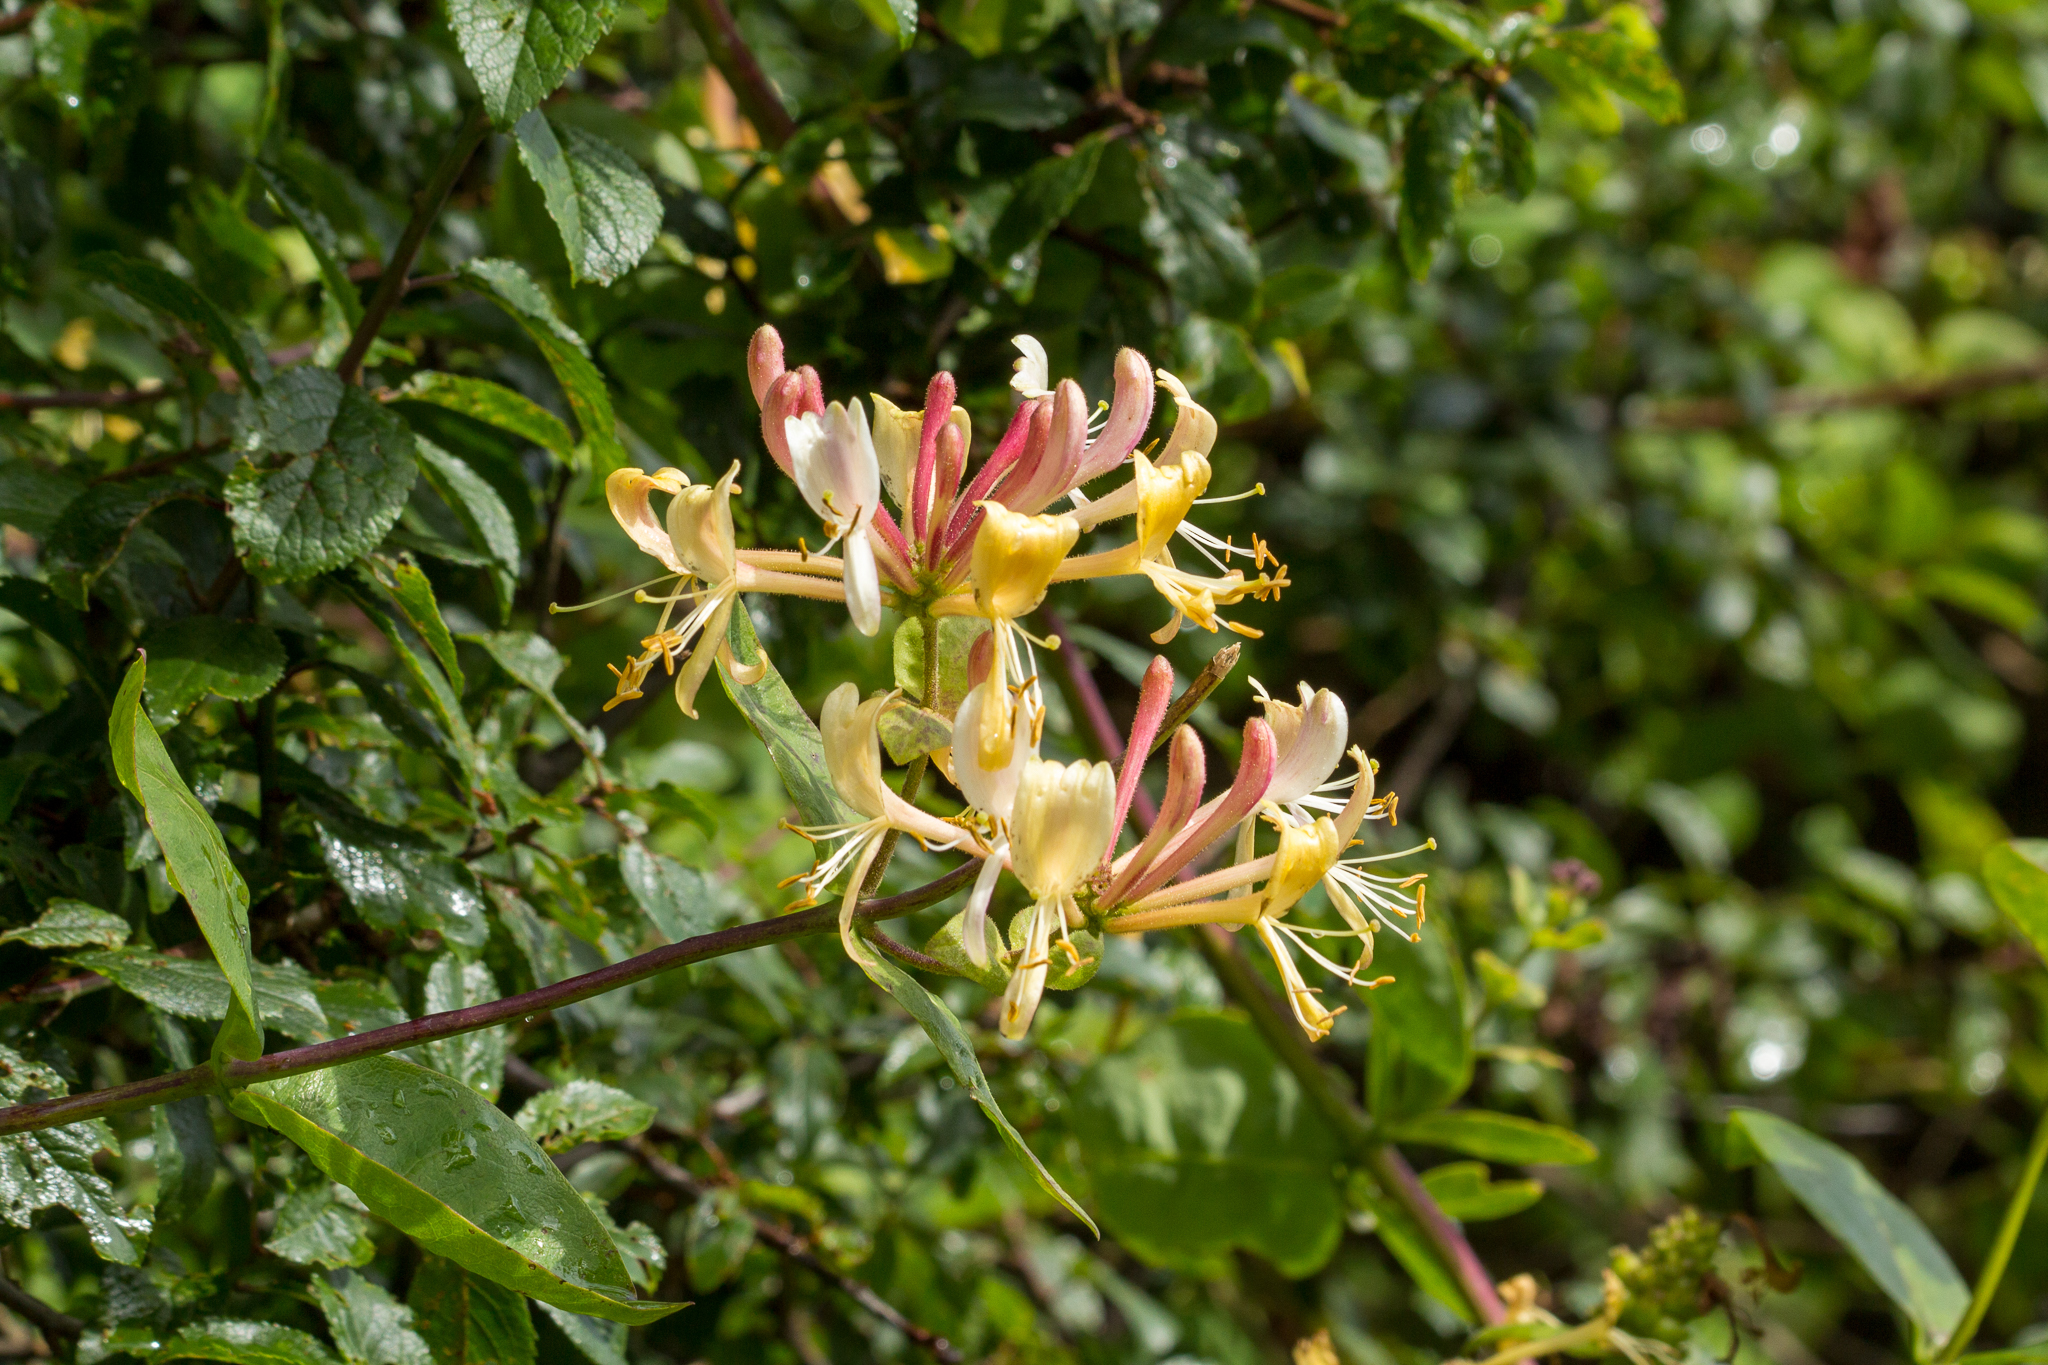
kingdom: Plantae
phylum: Tracheophyta
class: Magnoliopsida
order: Dipsacales
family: Caprifoliaceae
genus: Lonicera
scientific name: Lonicera periclymenum
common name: European honeysuckle
